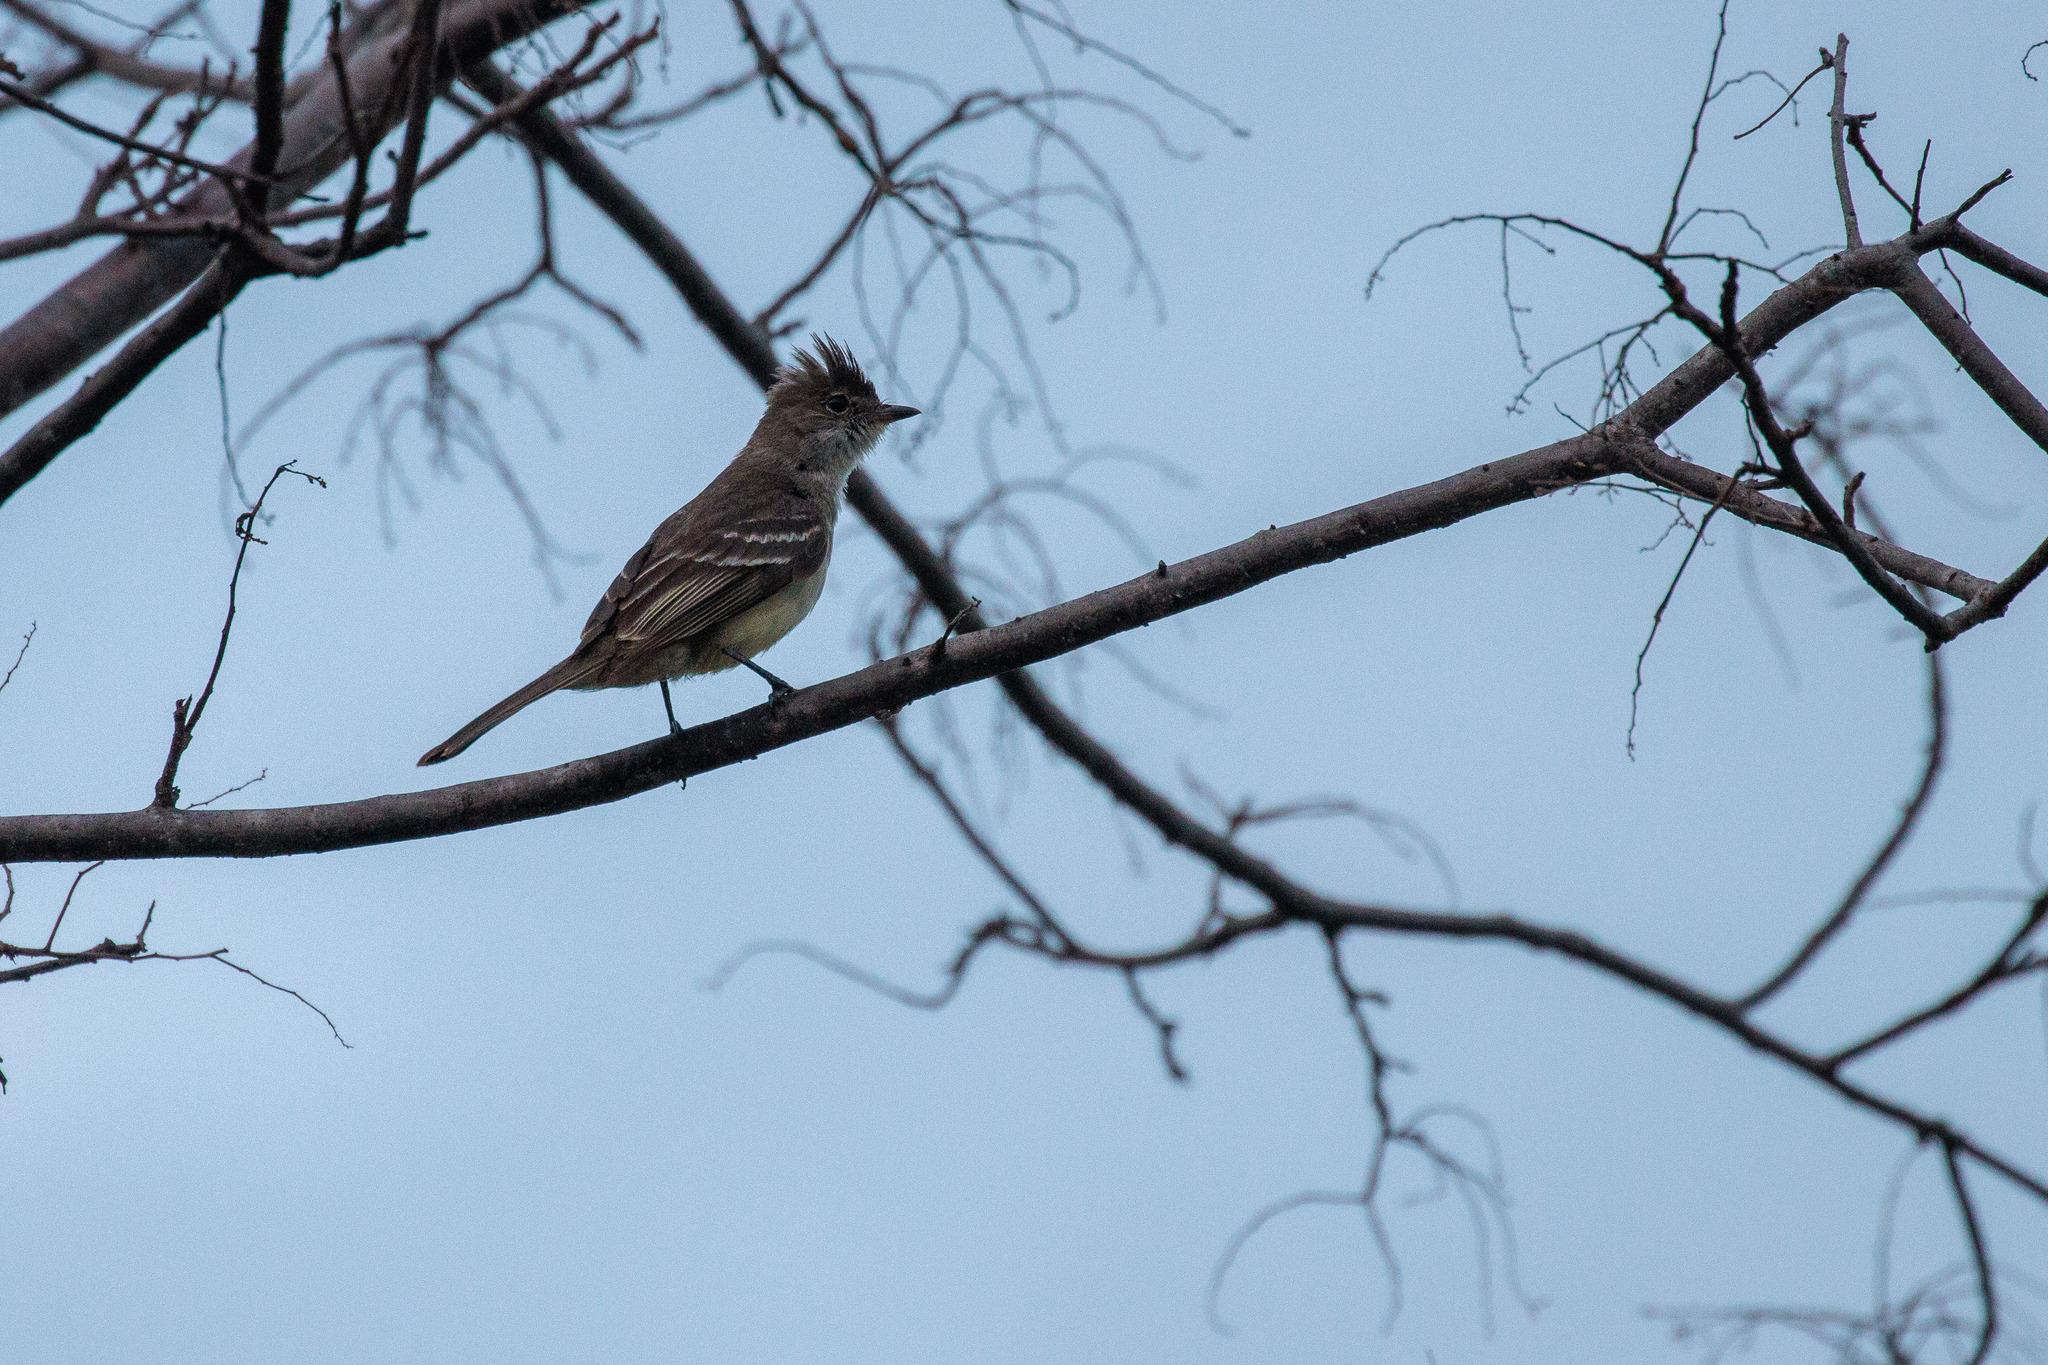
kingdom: Animalia
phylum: Chordata
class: Aves
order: Passeriformes
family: Tyrannidae
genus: Elaenia
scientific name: Elaenia spectabilis
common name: Large elaenia
